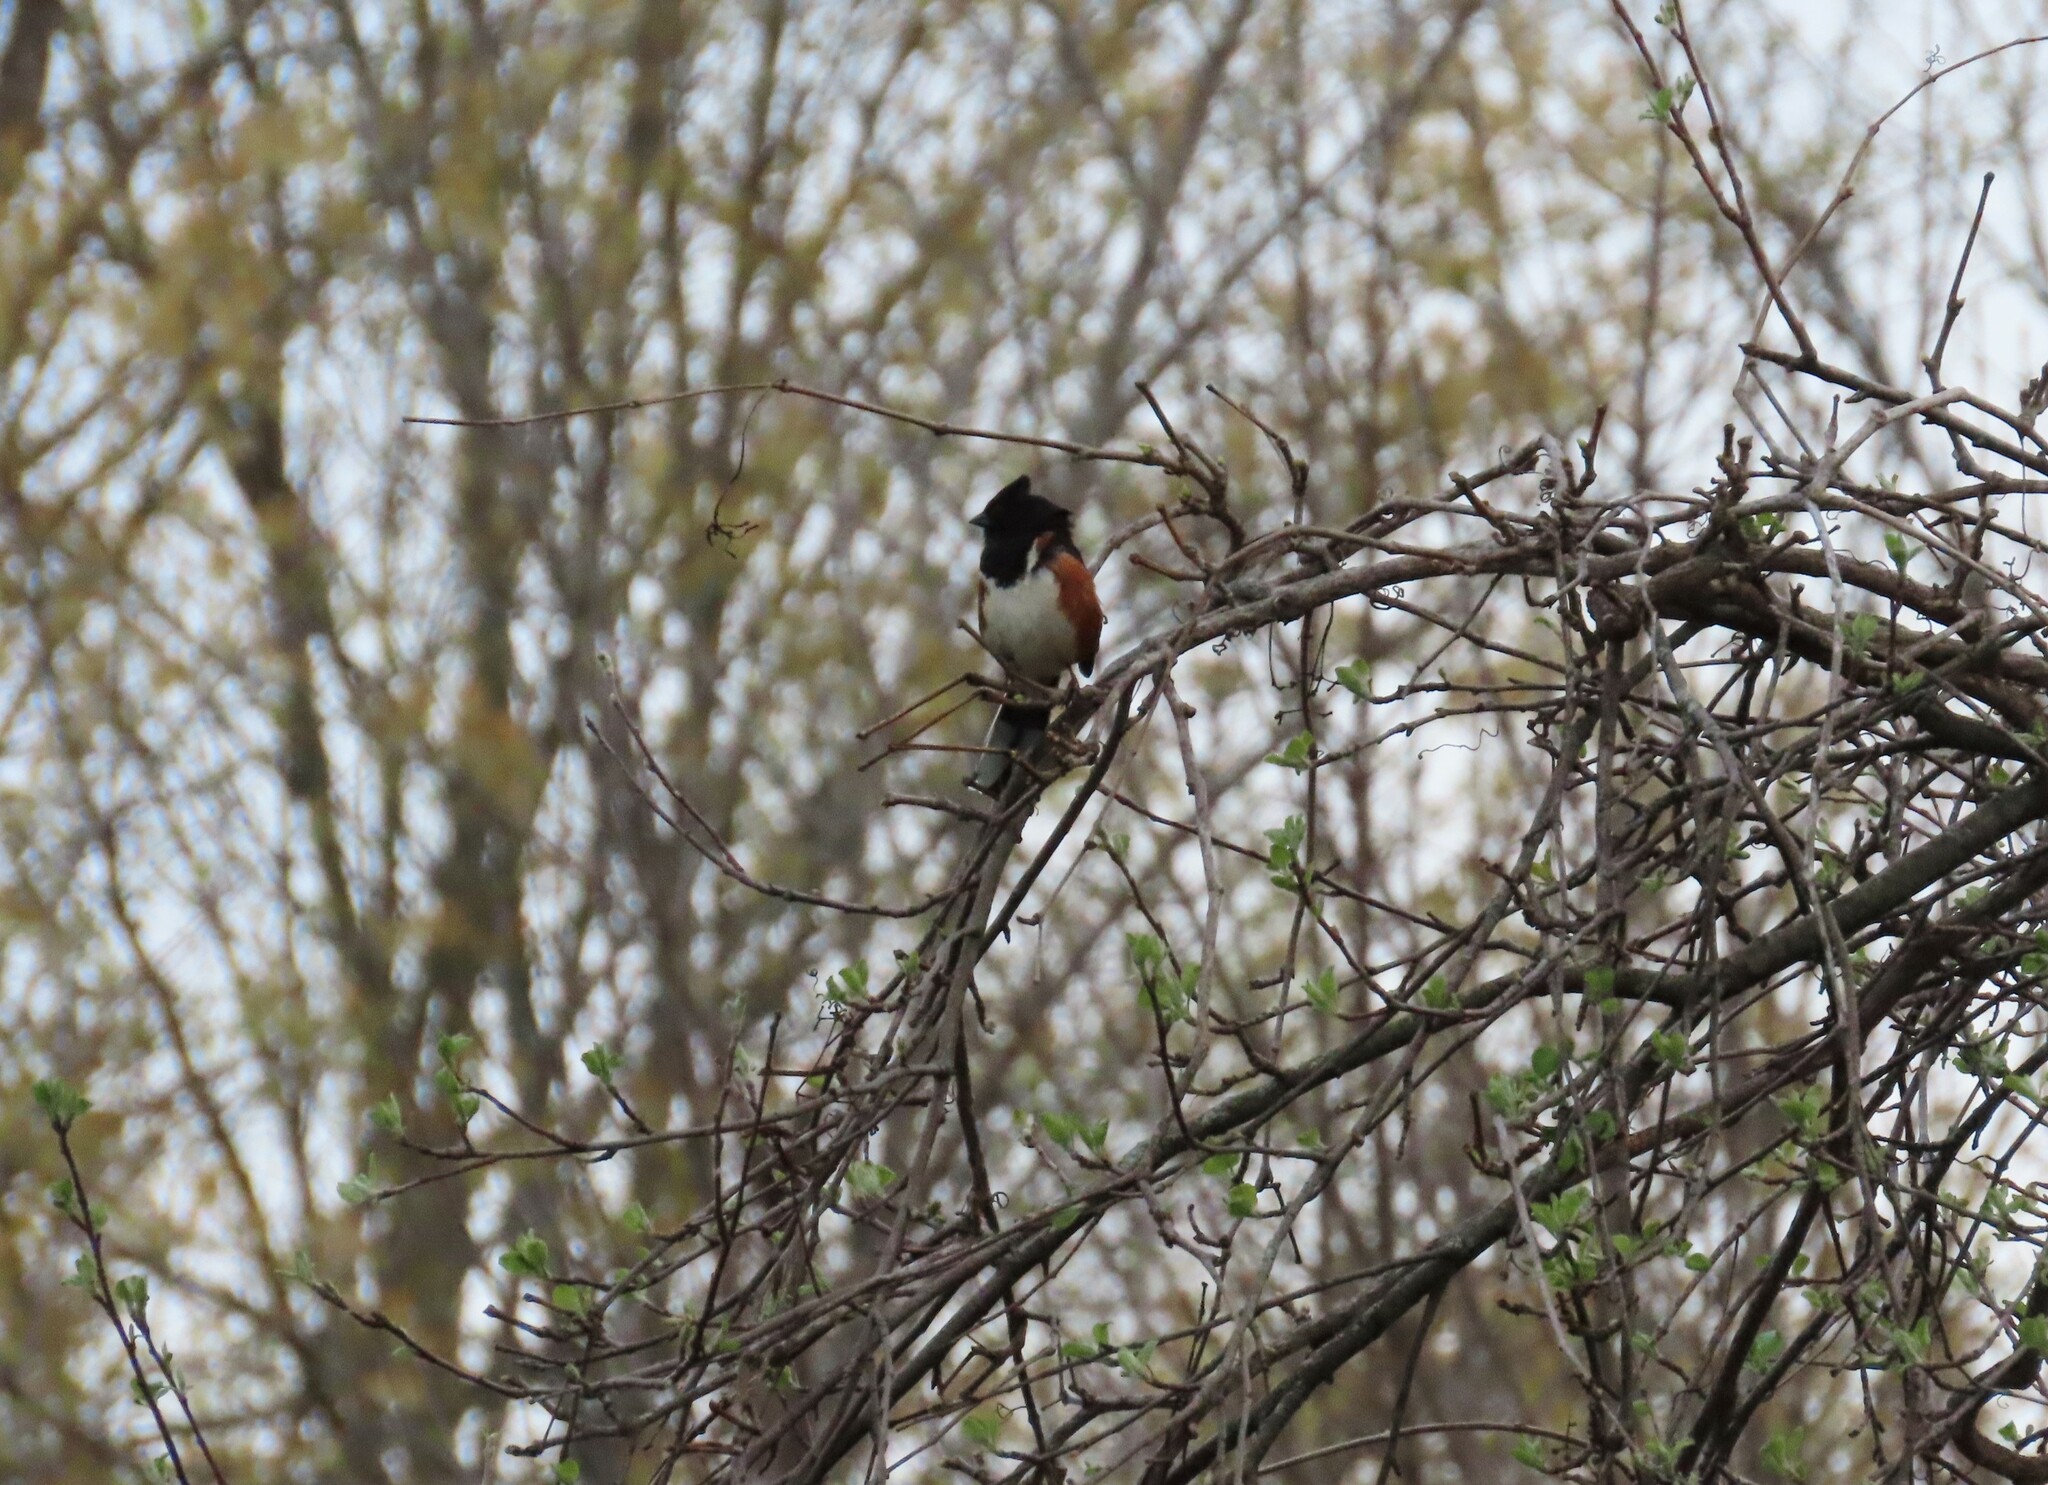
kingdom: Animalia
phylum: Chordata
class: Aves
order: Passeriformes
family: Passerellidae
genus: Pipilo
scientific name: Pipilo erythrophthalmus
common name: Eastern towhee
